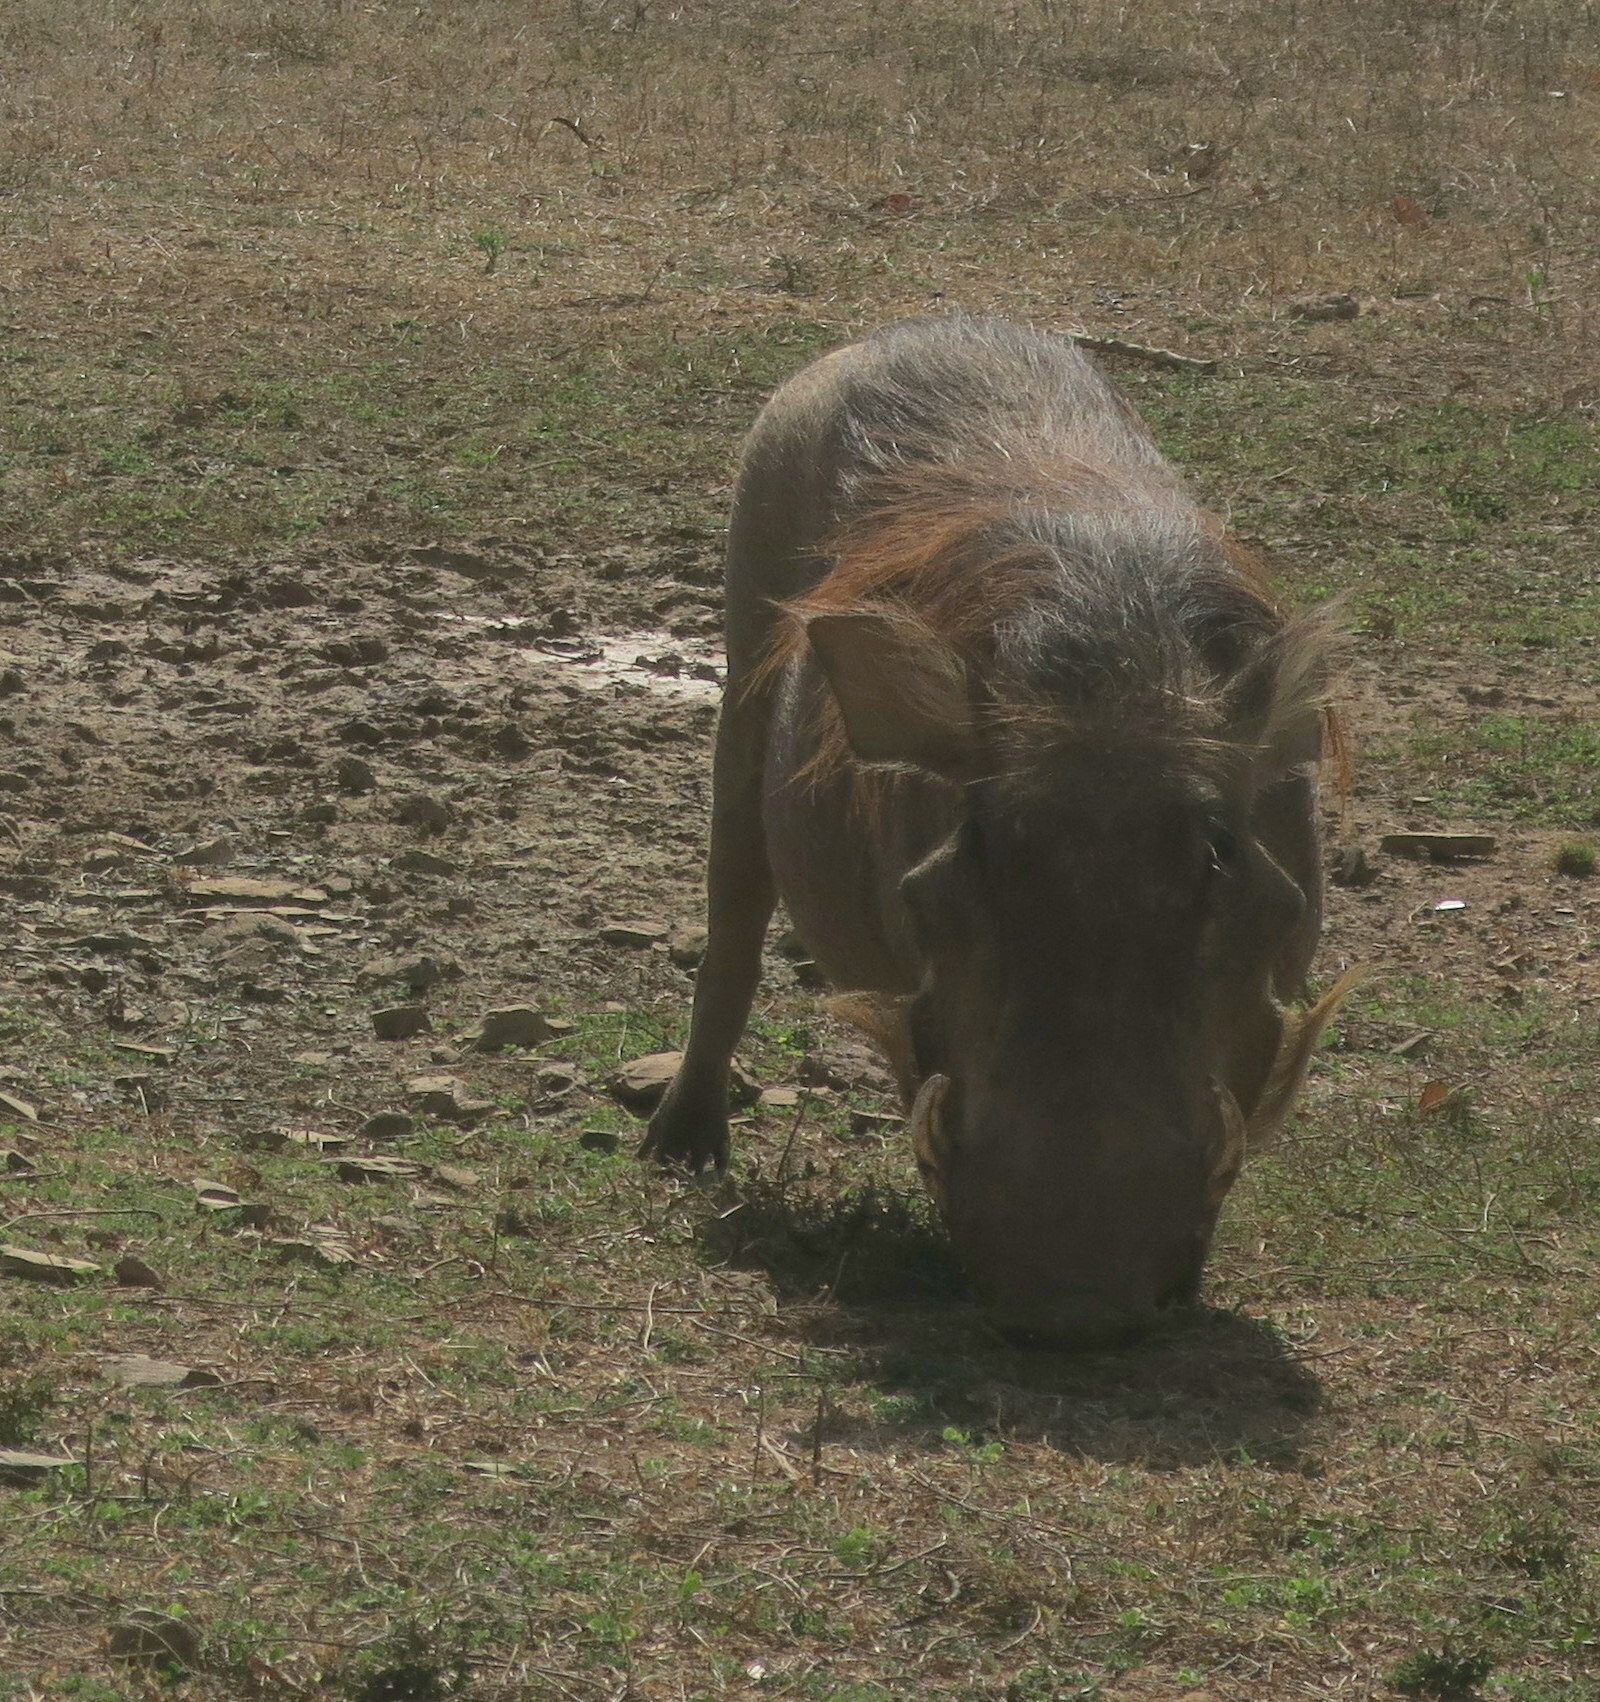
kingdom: Animalia
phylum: Chordata
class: Mammalia
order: Artiodactyla
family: Suidae
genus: Phacochoerus
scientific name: Phacochoerus africanus
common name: Common warthog
